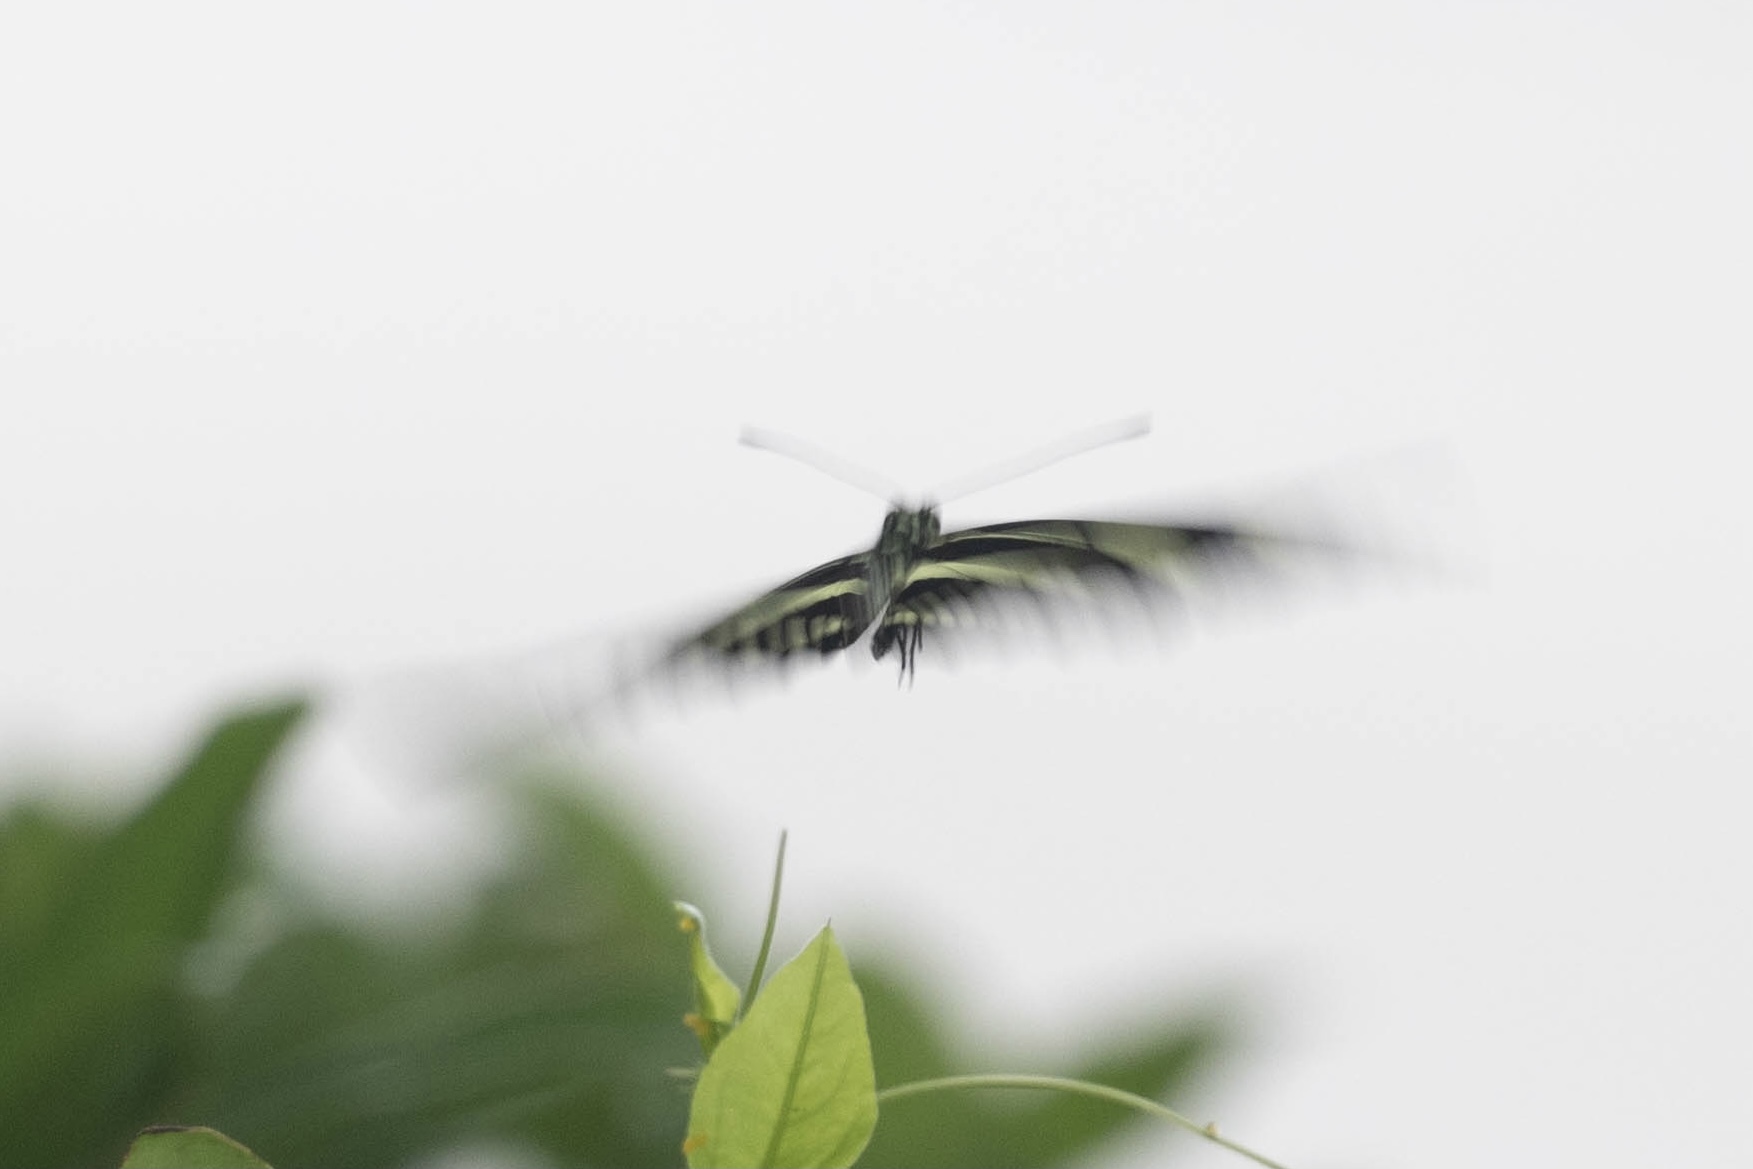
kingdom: Animalia
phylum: Arthropoda
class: Insecta
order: Lepidoptera
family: Nymphalidae
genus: Heliconius
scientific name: Heliconius charithonia
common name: Zebra long wing
